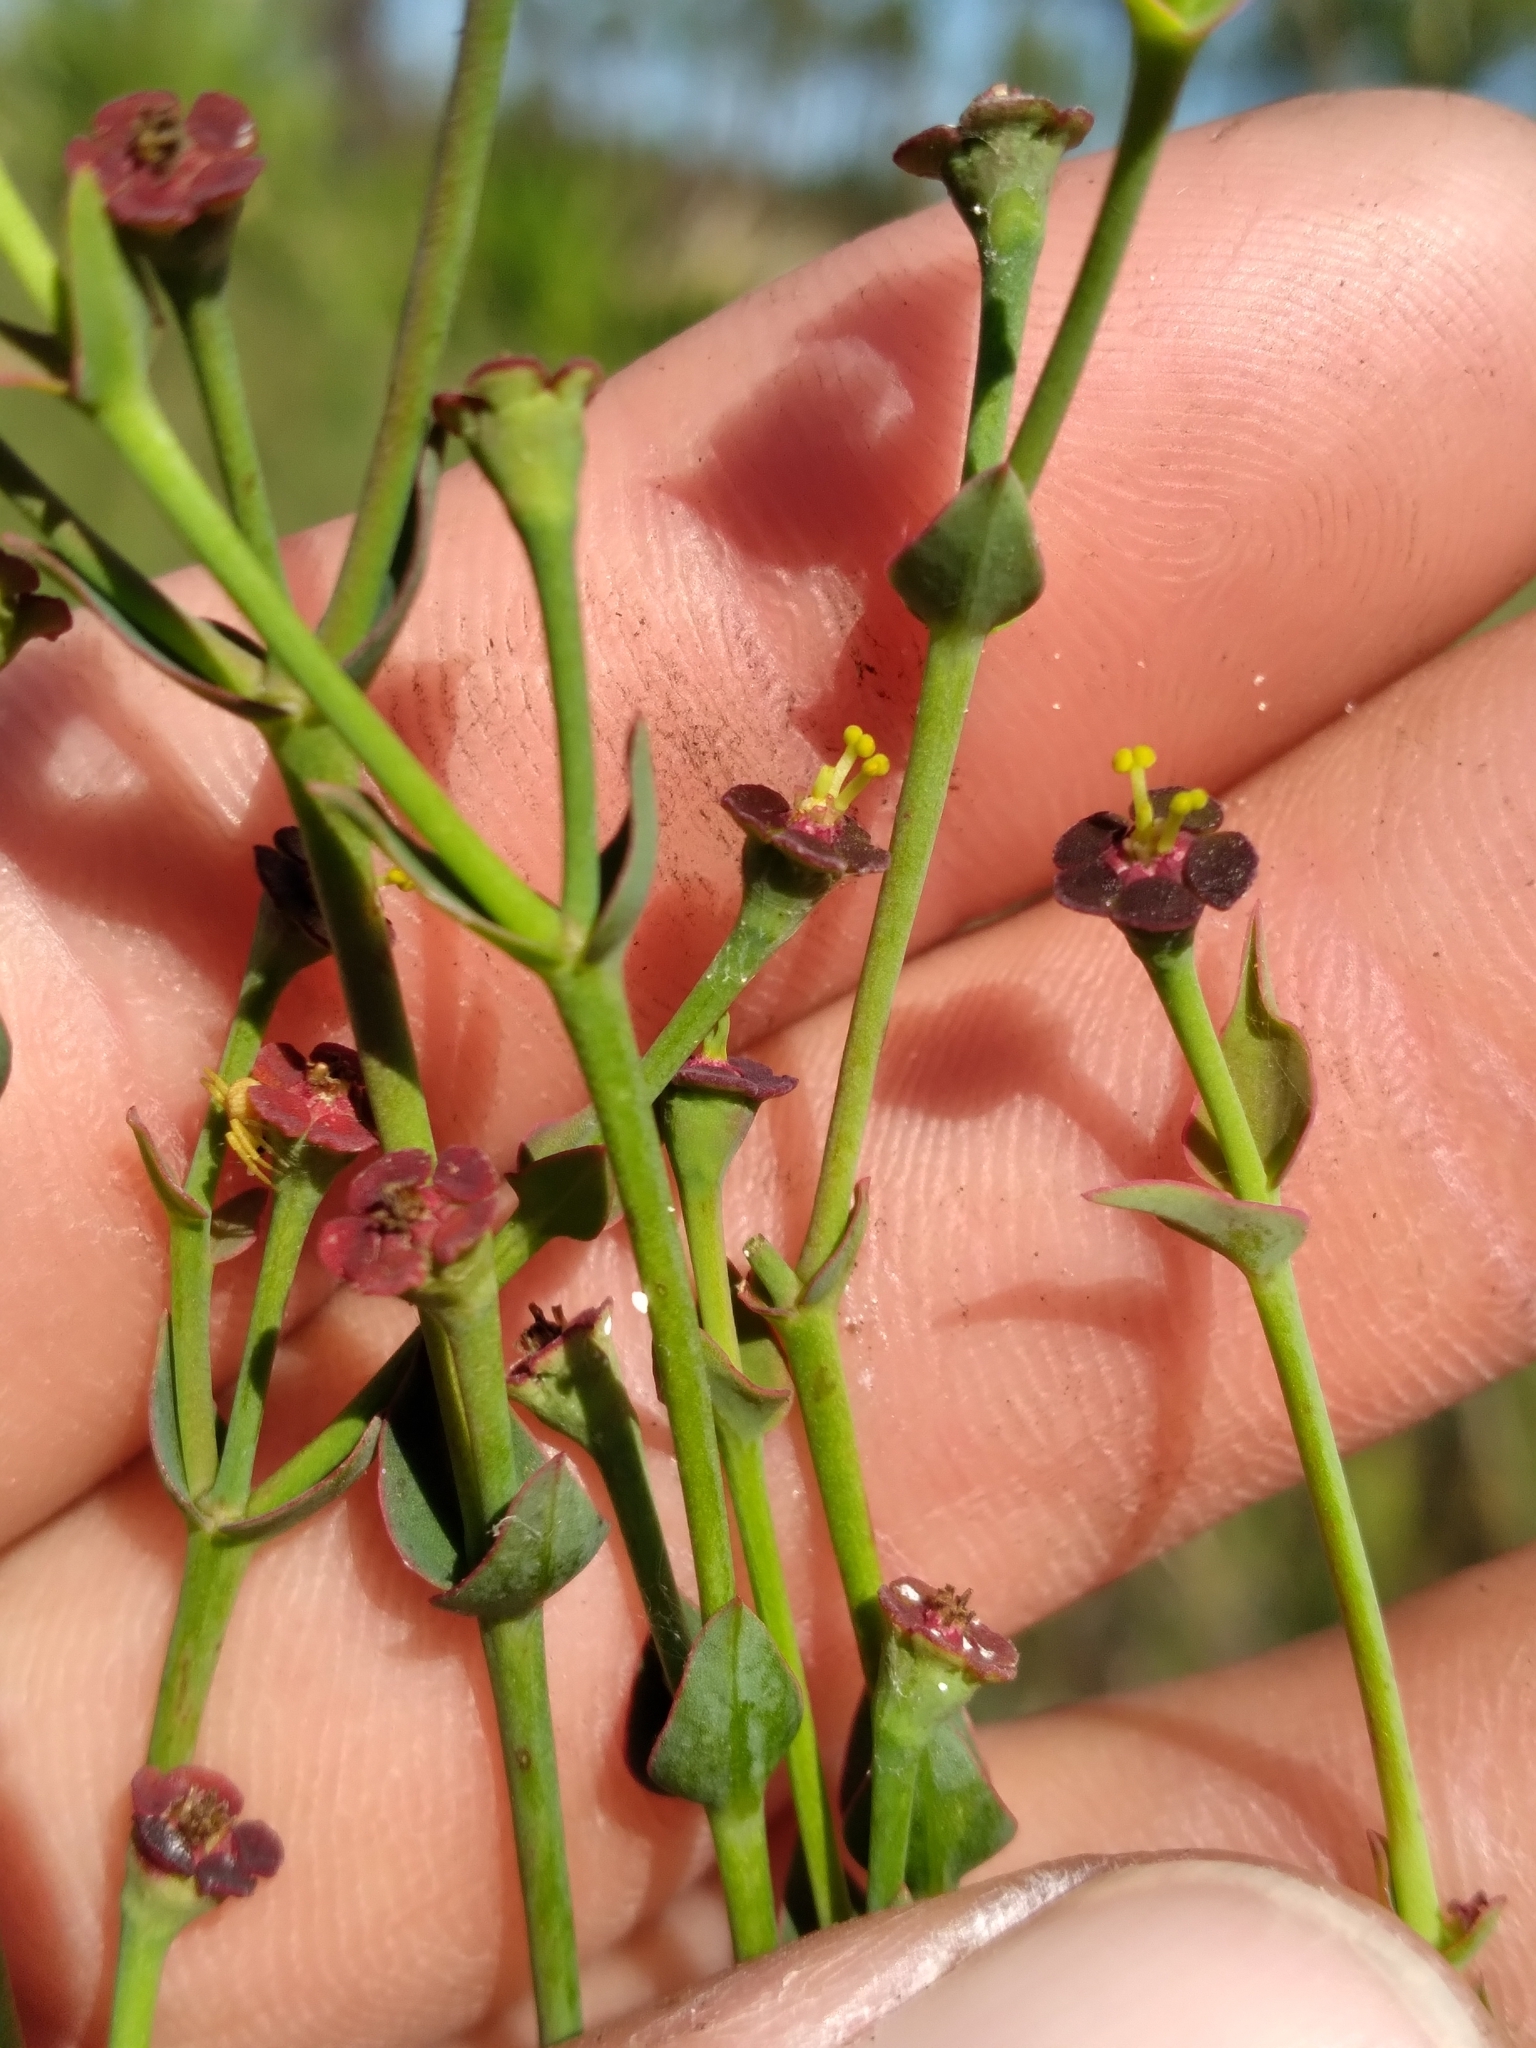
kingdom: Plantae
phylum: Tracheophyta
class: Magnoliopsida
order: Malpighiales
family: Euphorbiaceae
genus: Euphorbia
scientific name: Euphorbia inundata
